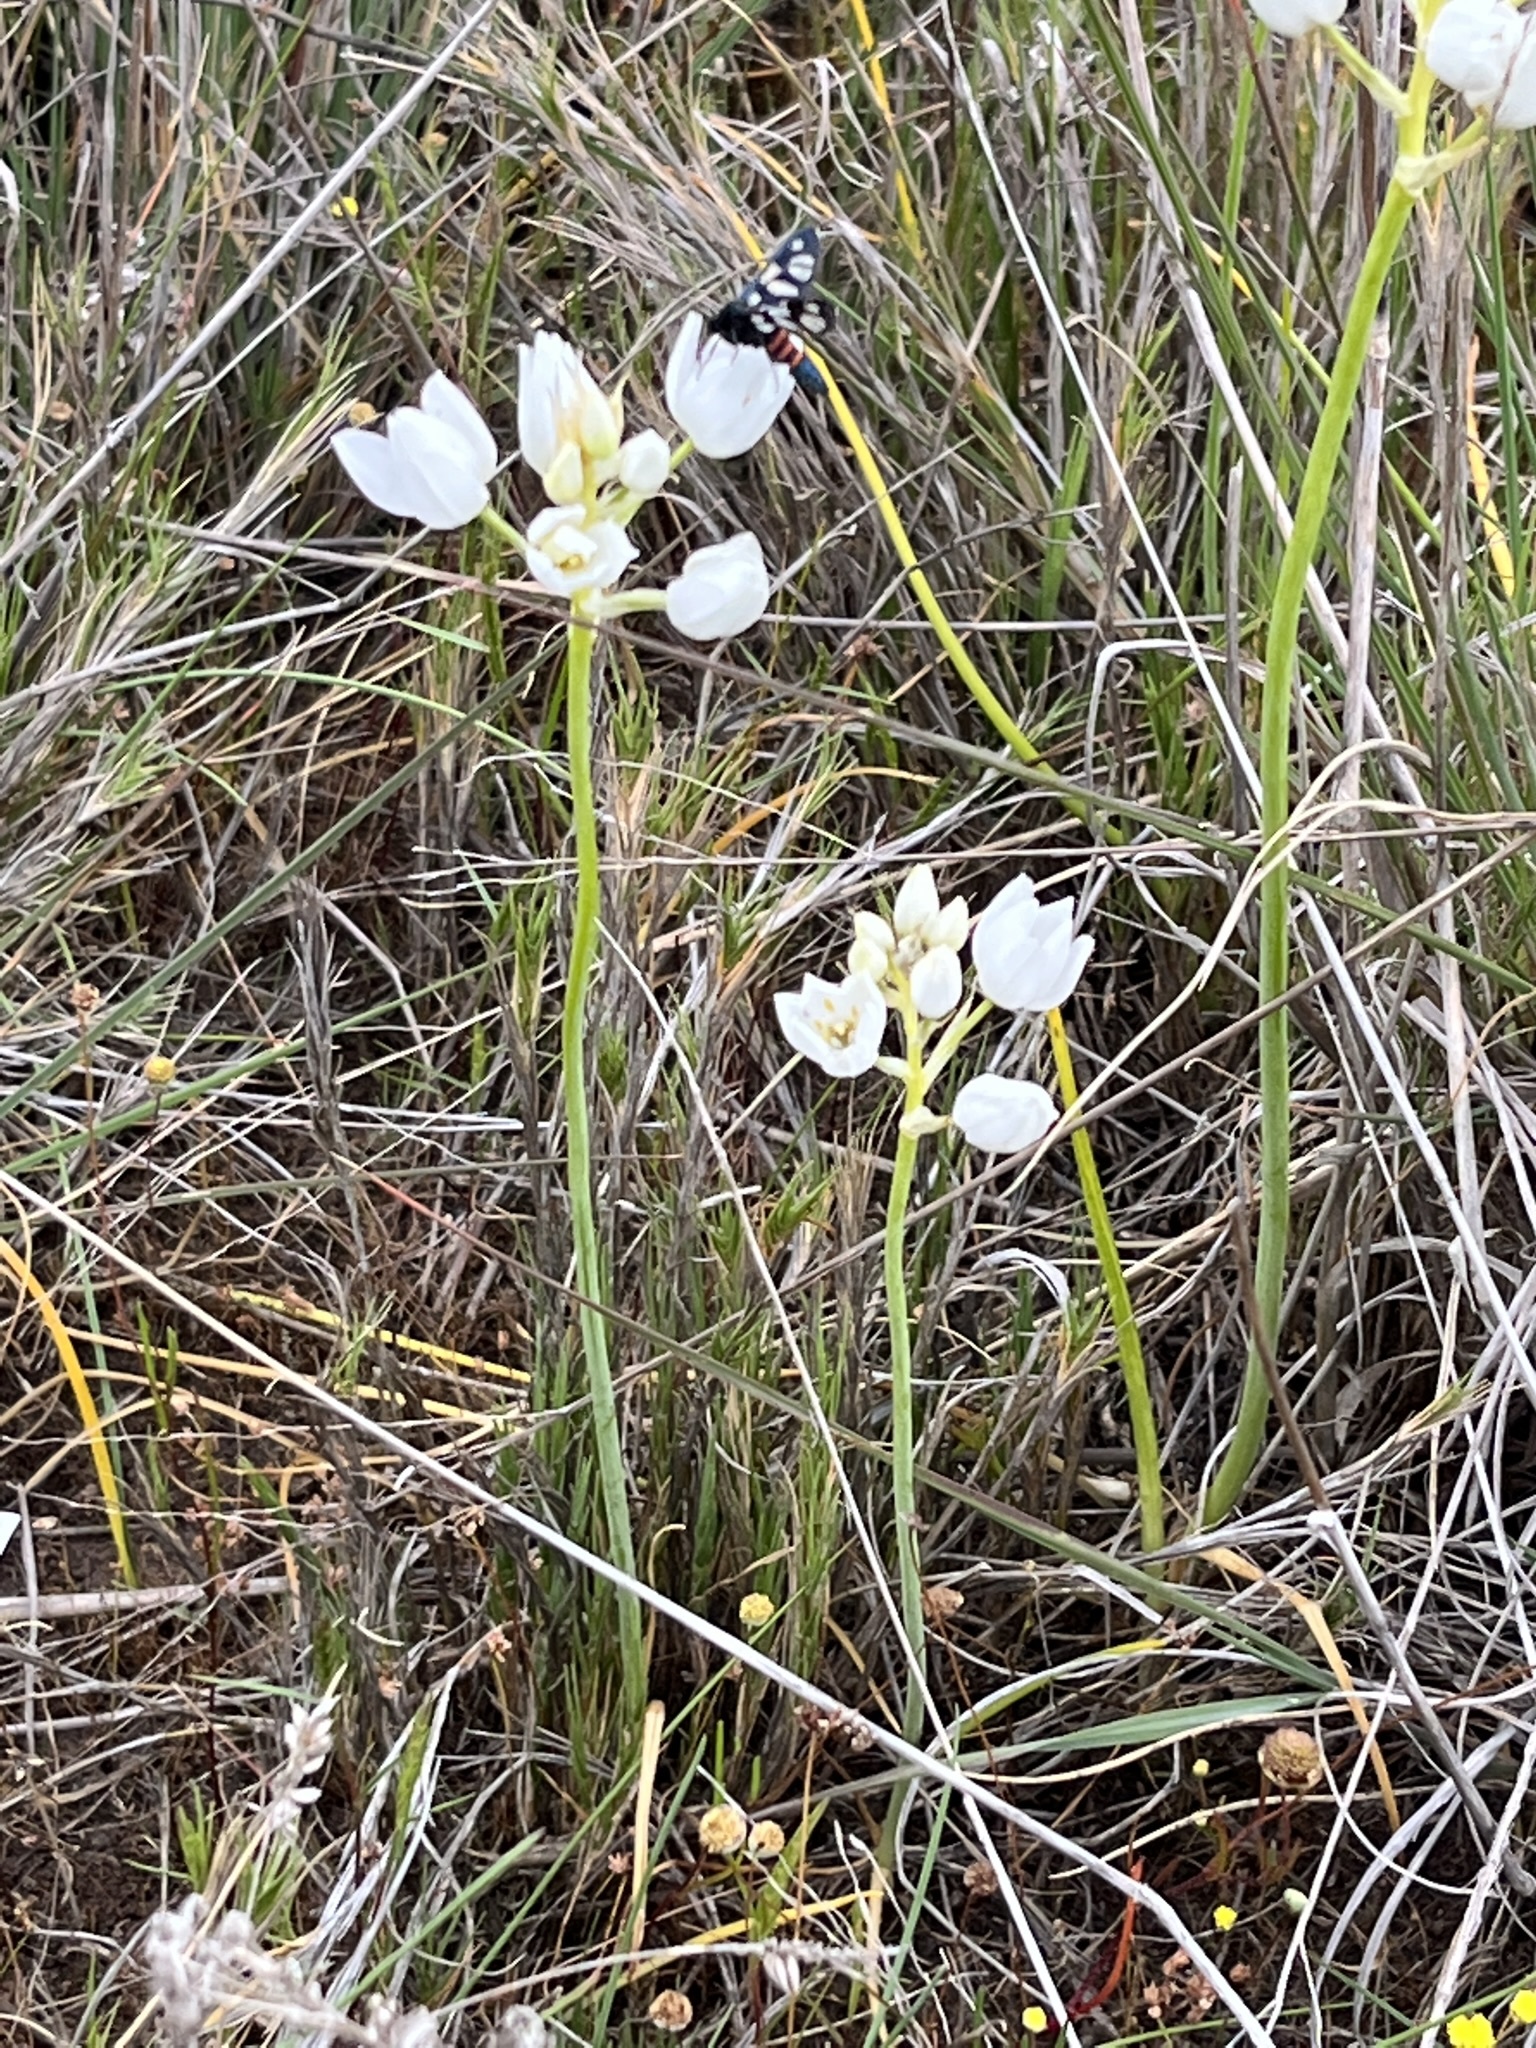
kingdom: Plantae
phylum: Tracheophyta
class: Liliopsida
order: Asparagales
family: Asparagaceae
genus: Ornithogalum
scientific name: Ornithogalum thyrsoides
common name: Chincherinchee
